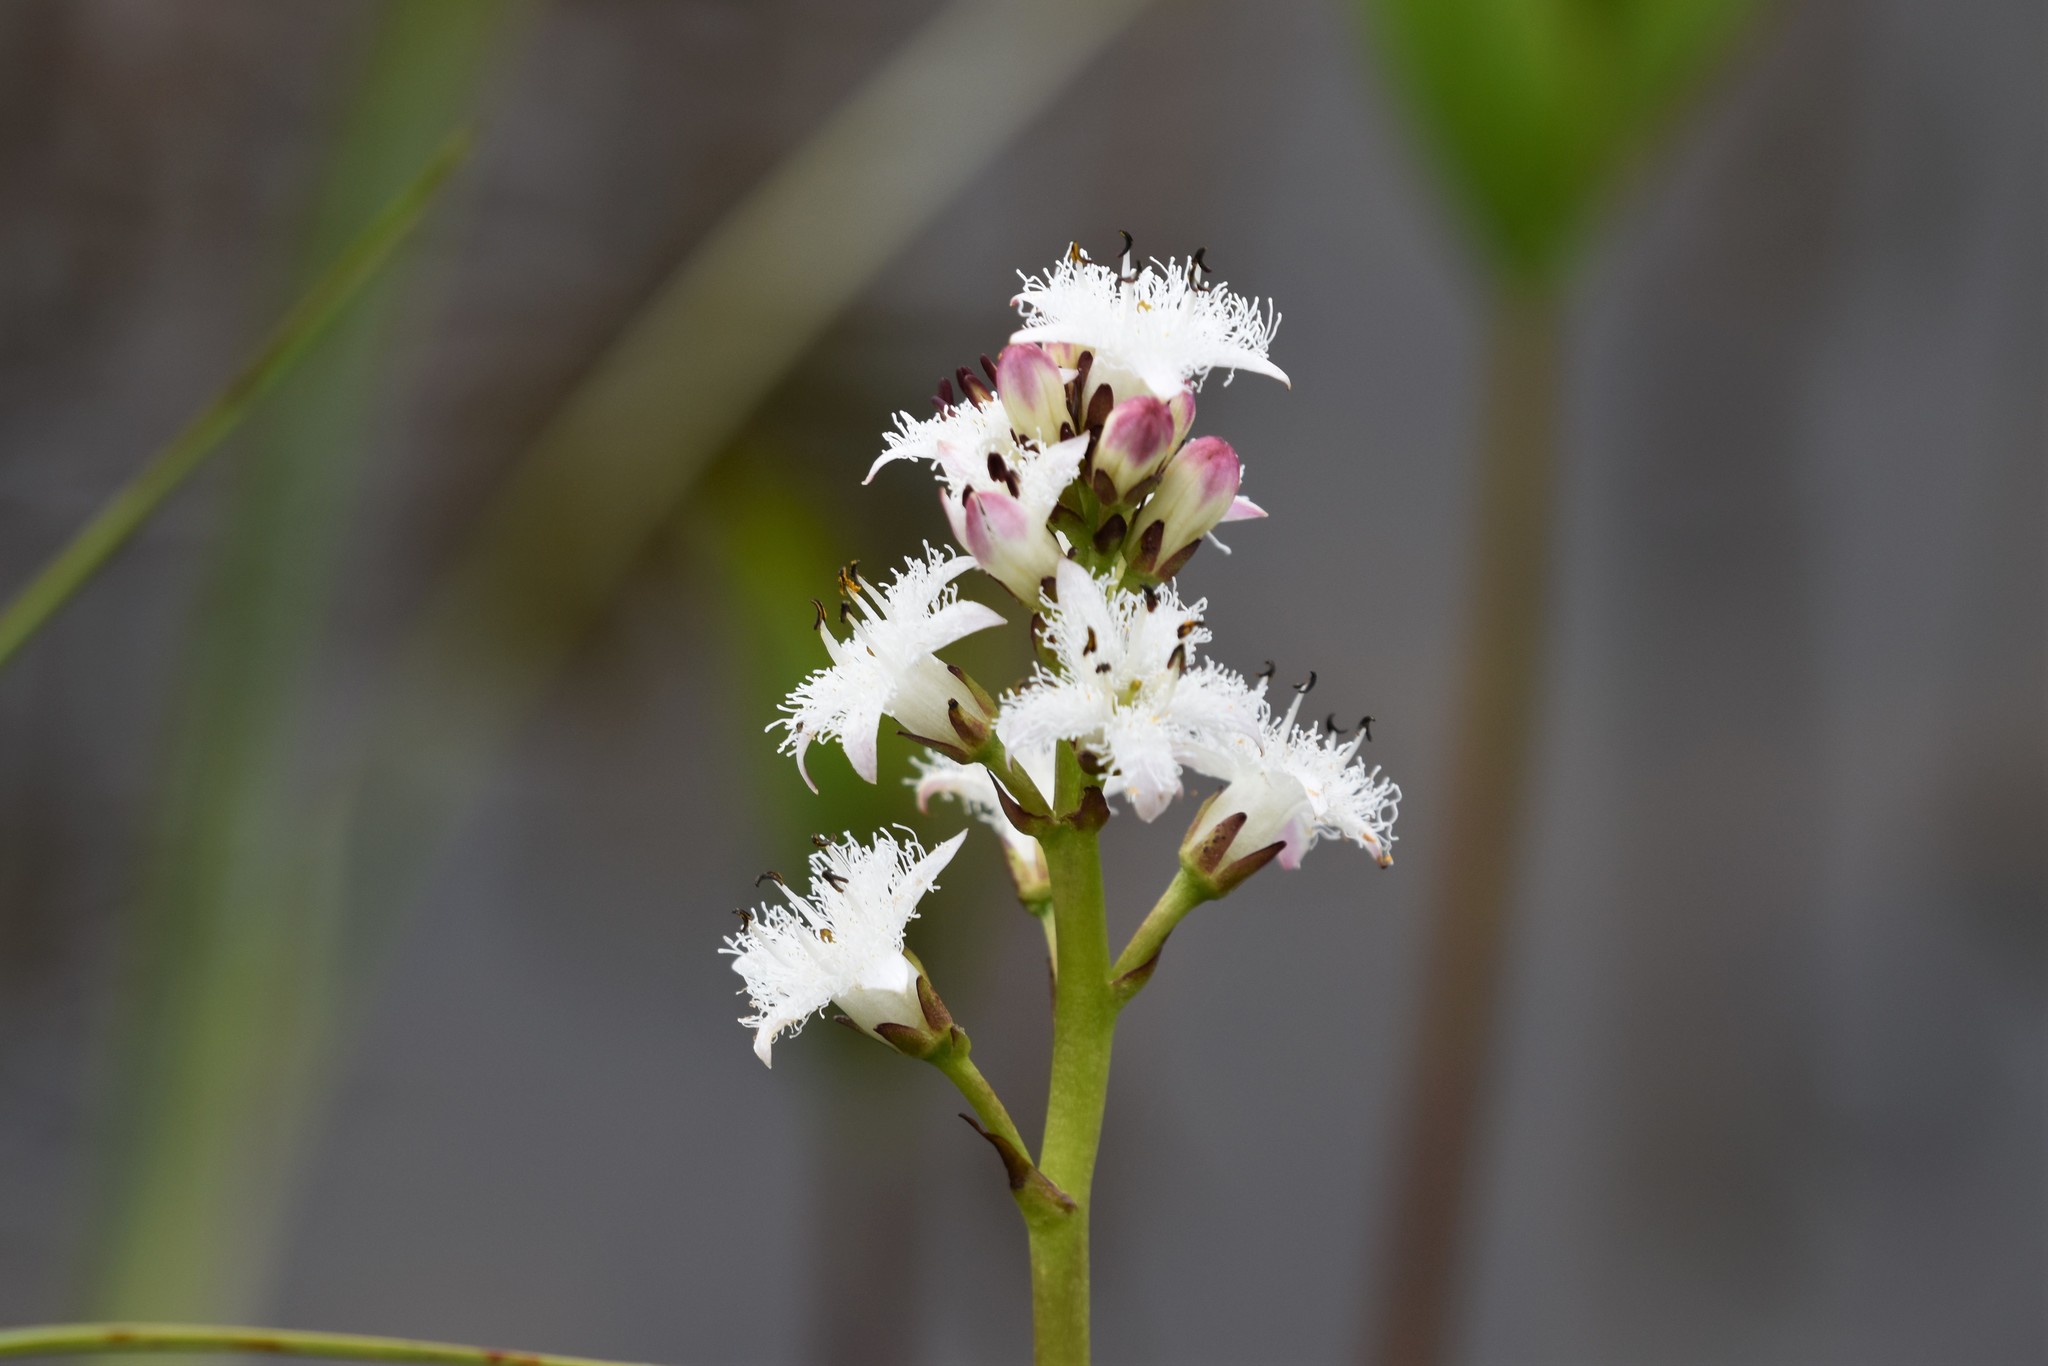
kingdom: Plantae
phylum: Tracheophyta
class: Magnoliopsida
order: Asterales
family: Menyanthaceae
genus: Menyanthes
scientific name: Menyanthes trifoliata
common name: Bogbean
